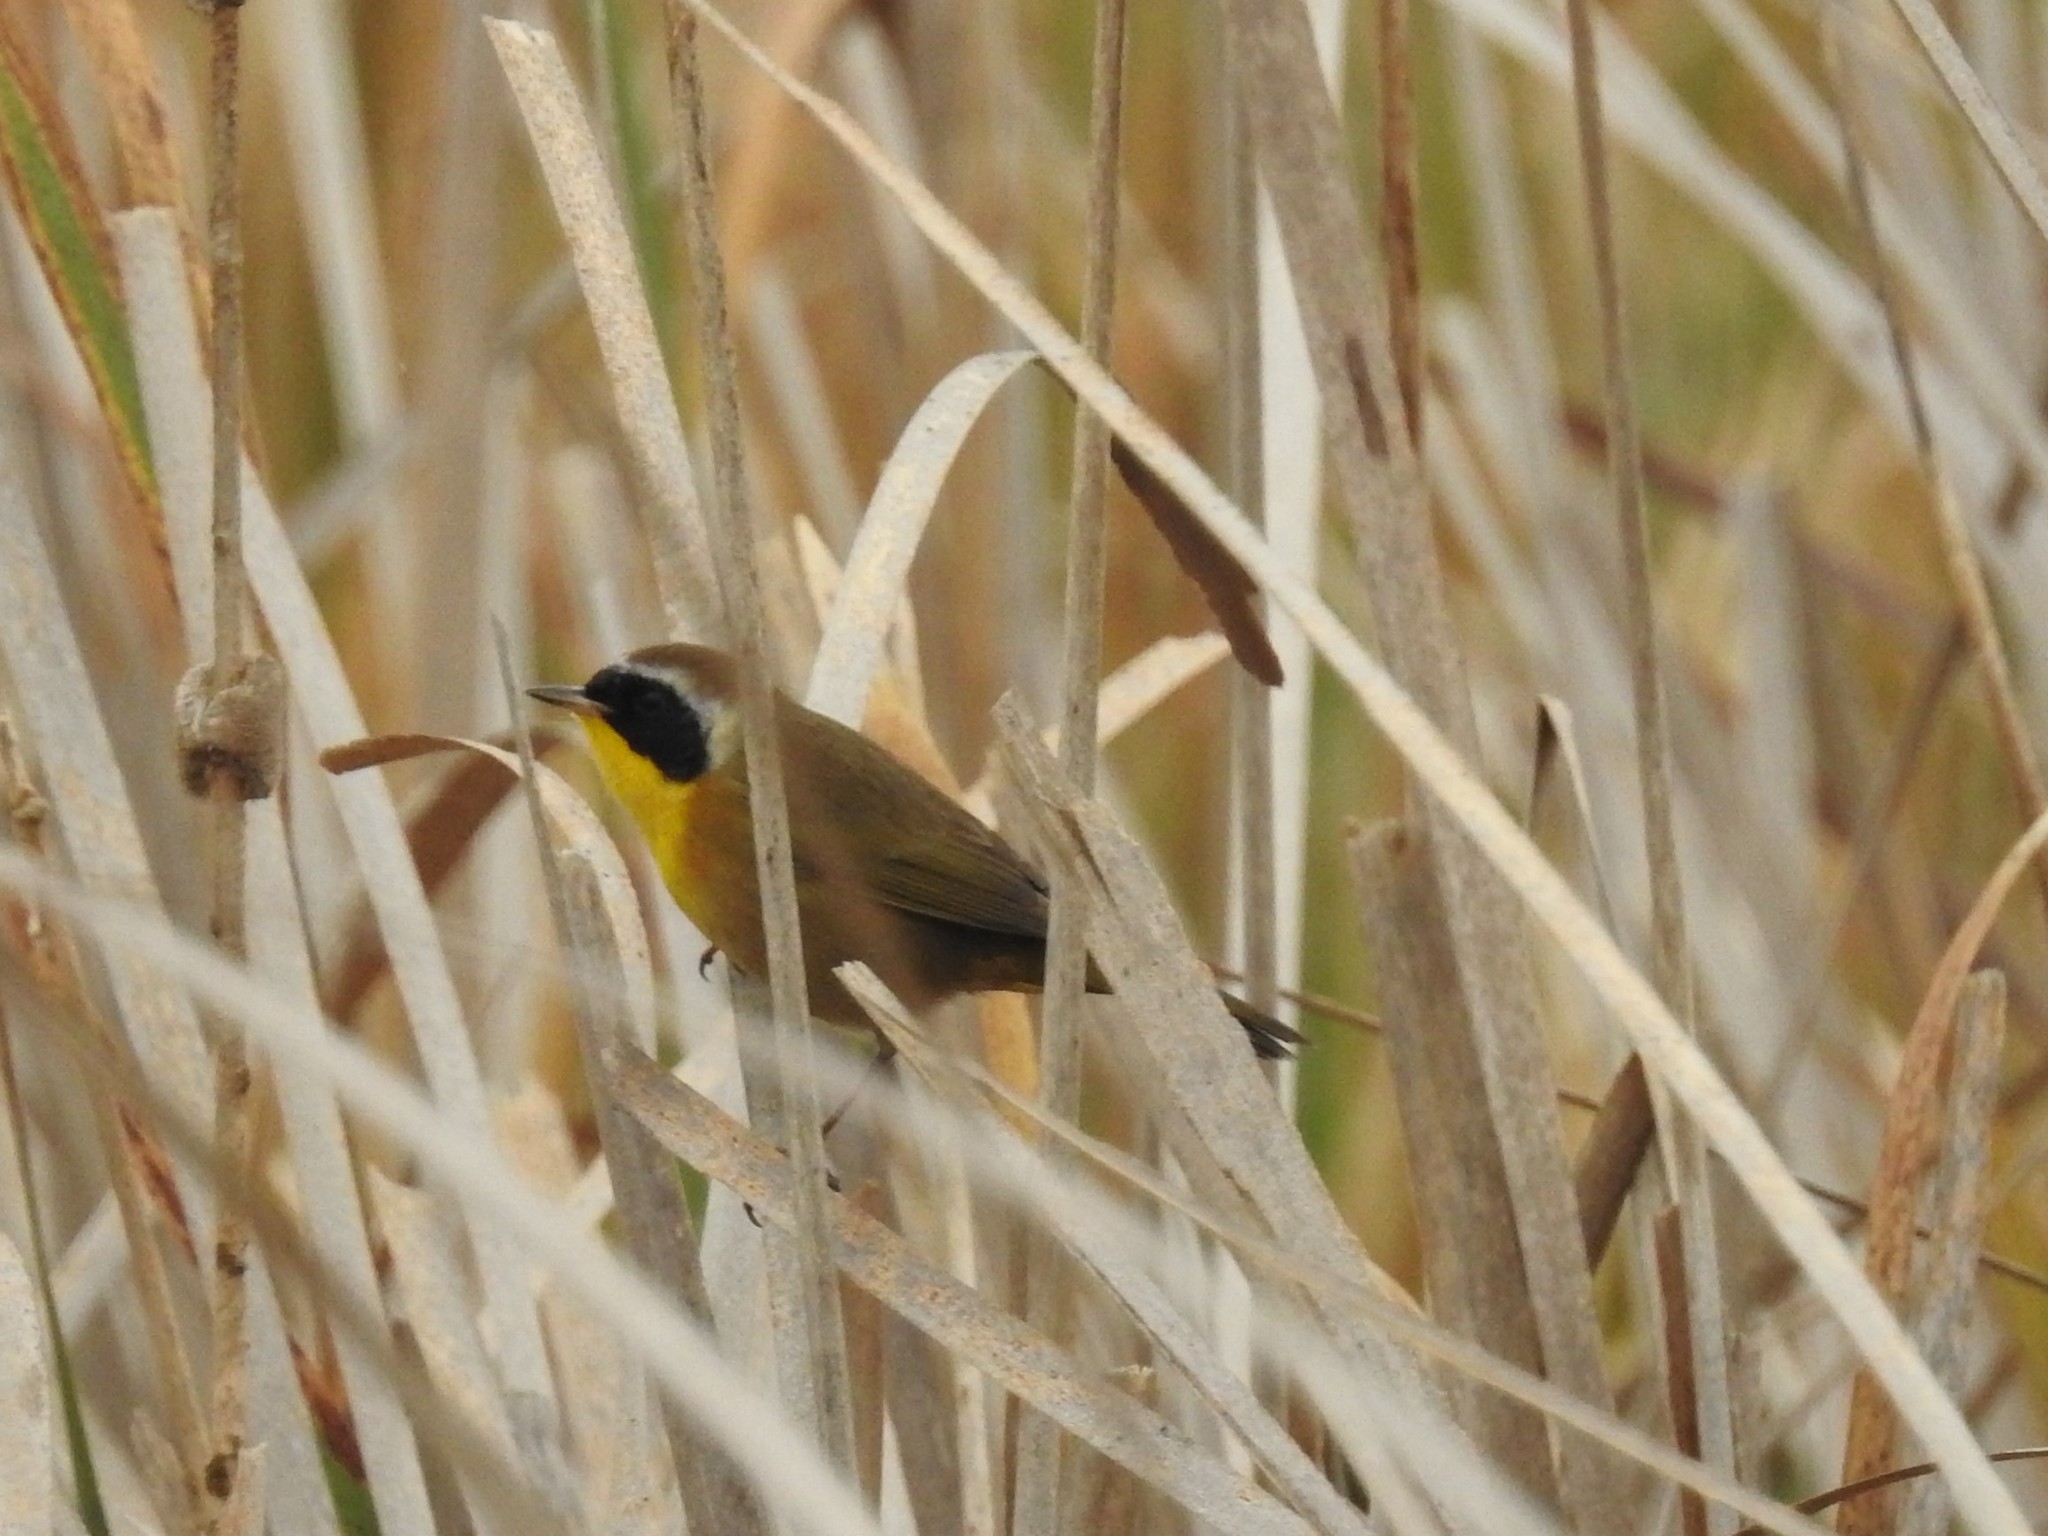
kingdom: Animalia
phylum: Chordata
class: Aves
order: Passeriformes
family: Parulidae
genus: Geothlypis
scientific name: Geothlypis trichas
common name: Common yellowthroat
